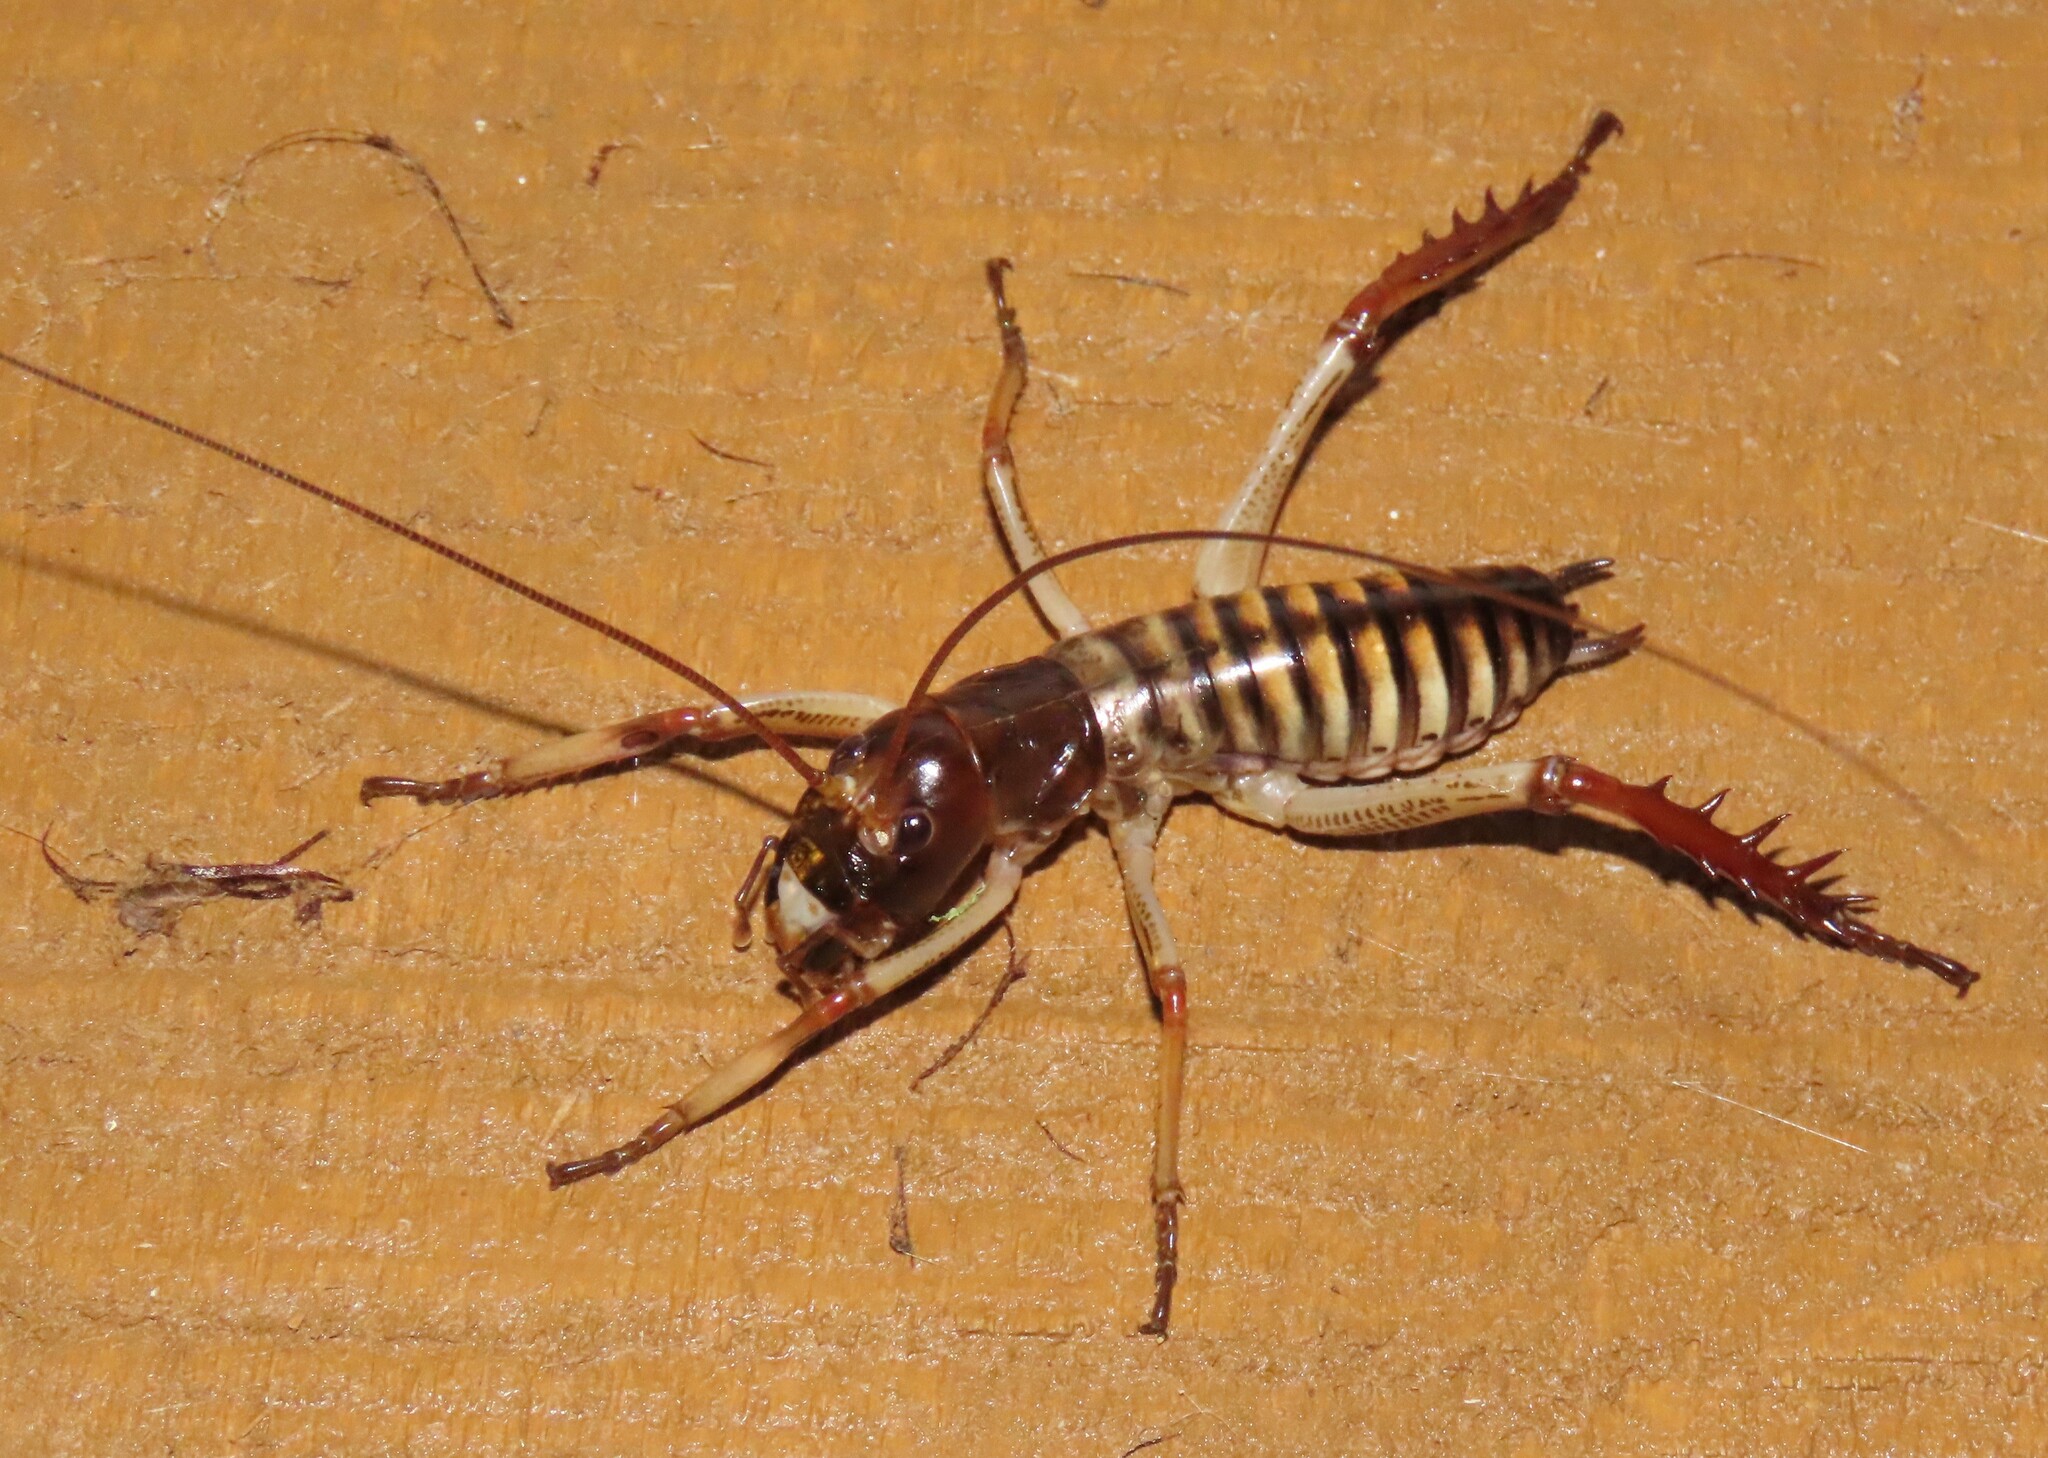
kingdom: Animalia
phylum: Arthropoda
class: Insecta
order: Orthoptera
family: Anostostomatidae
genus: Hemideina
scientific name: Hemideina crassidens
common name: Wellington tree weta
